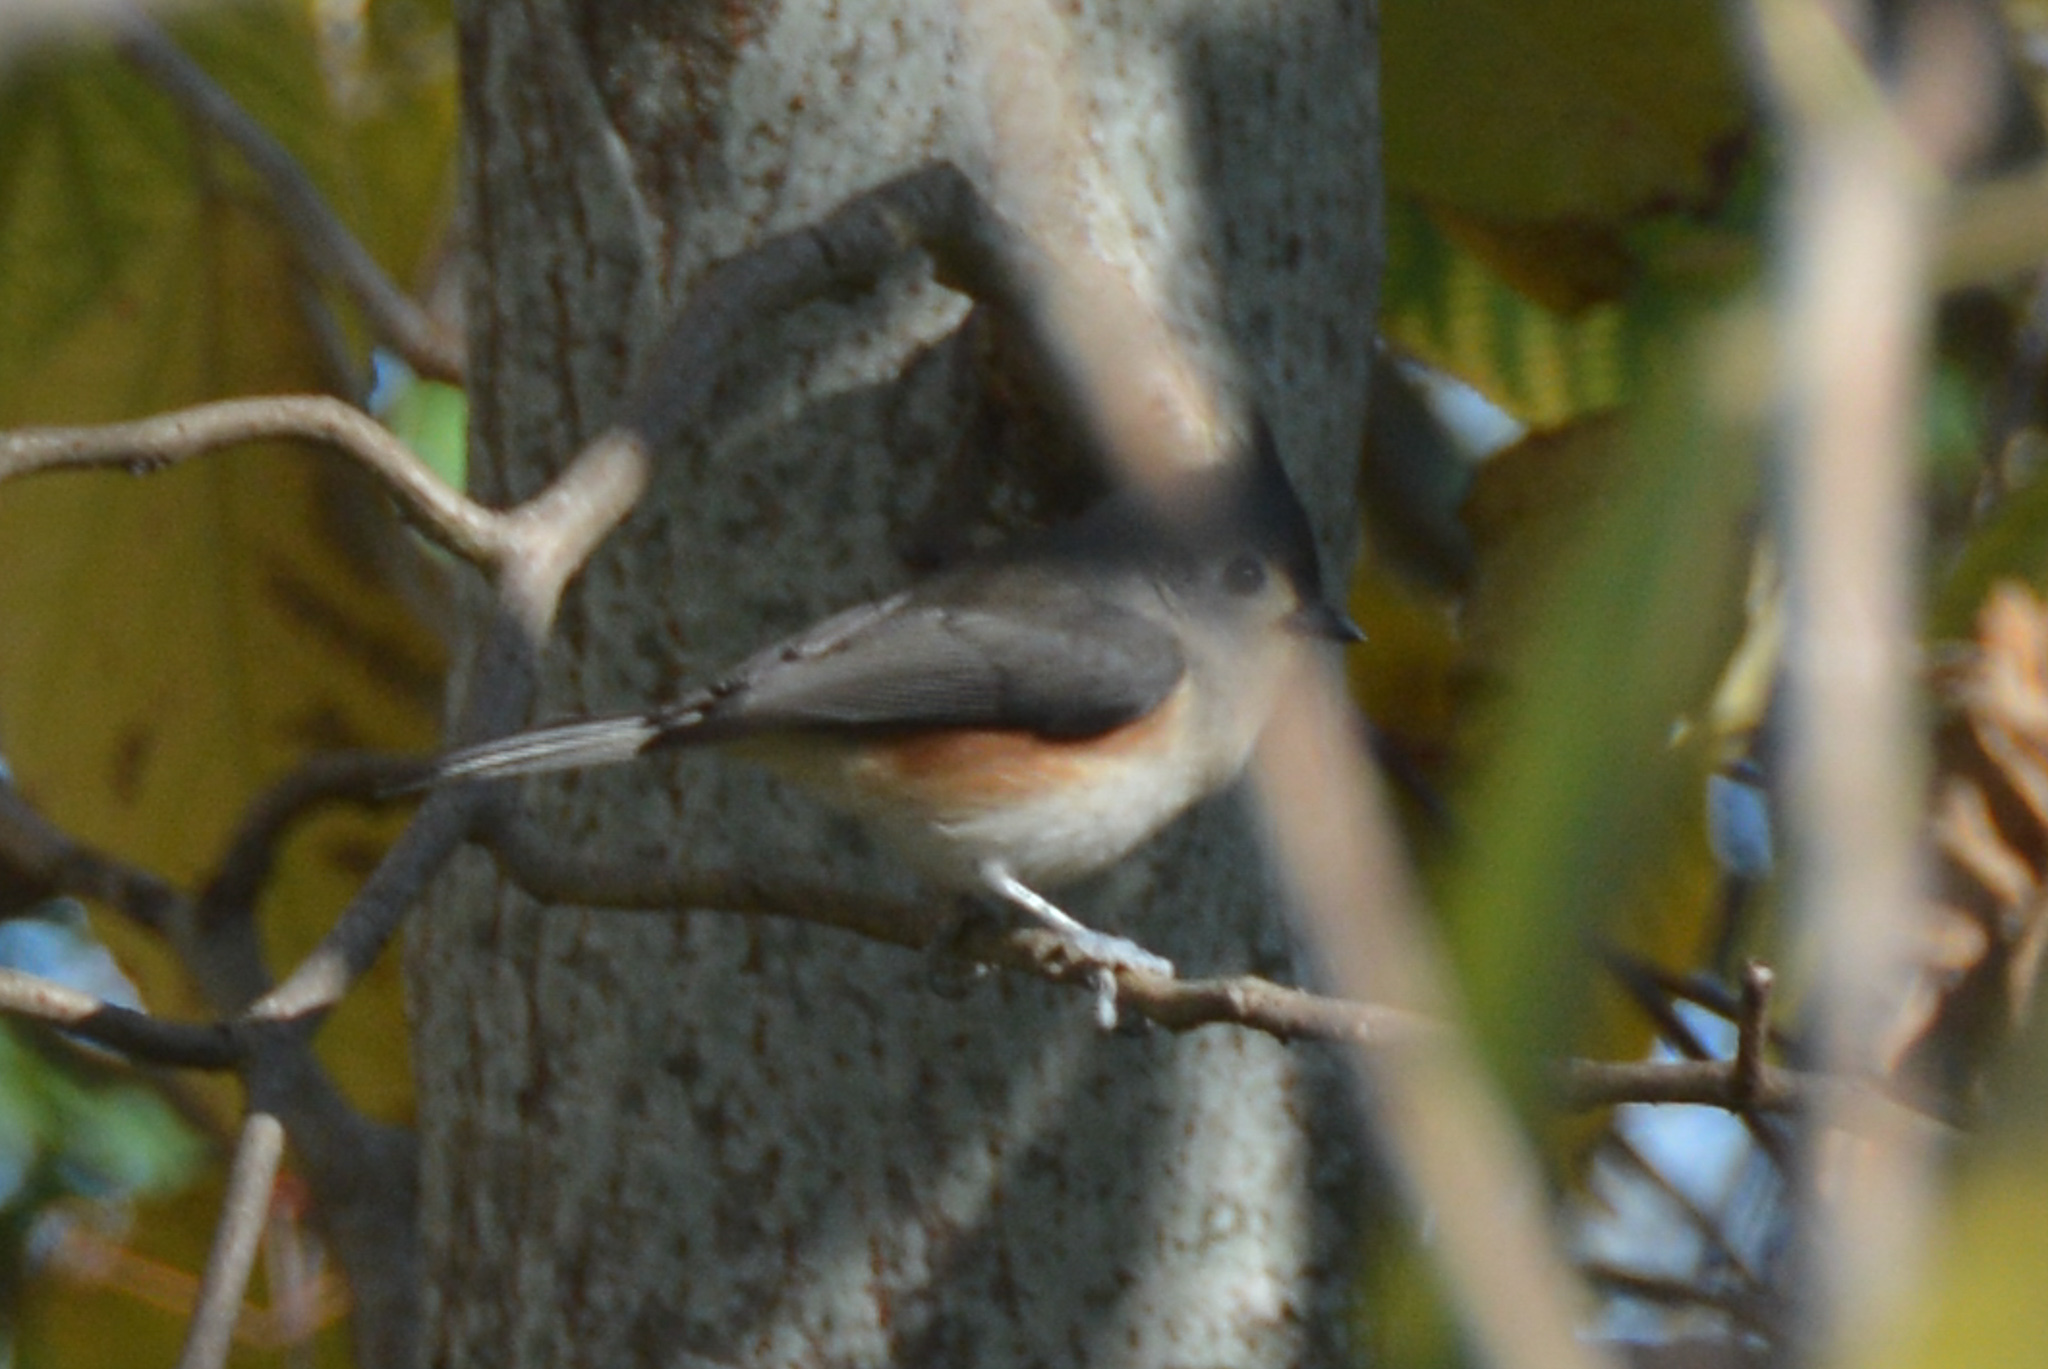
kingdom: Animalia
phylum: Chordata
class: Aves
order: Passeriformes
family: Paridae
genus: Baeolophus
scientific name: Baeolophus bicolor
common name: Tufted titmouse
